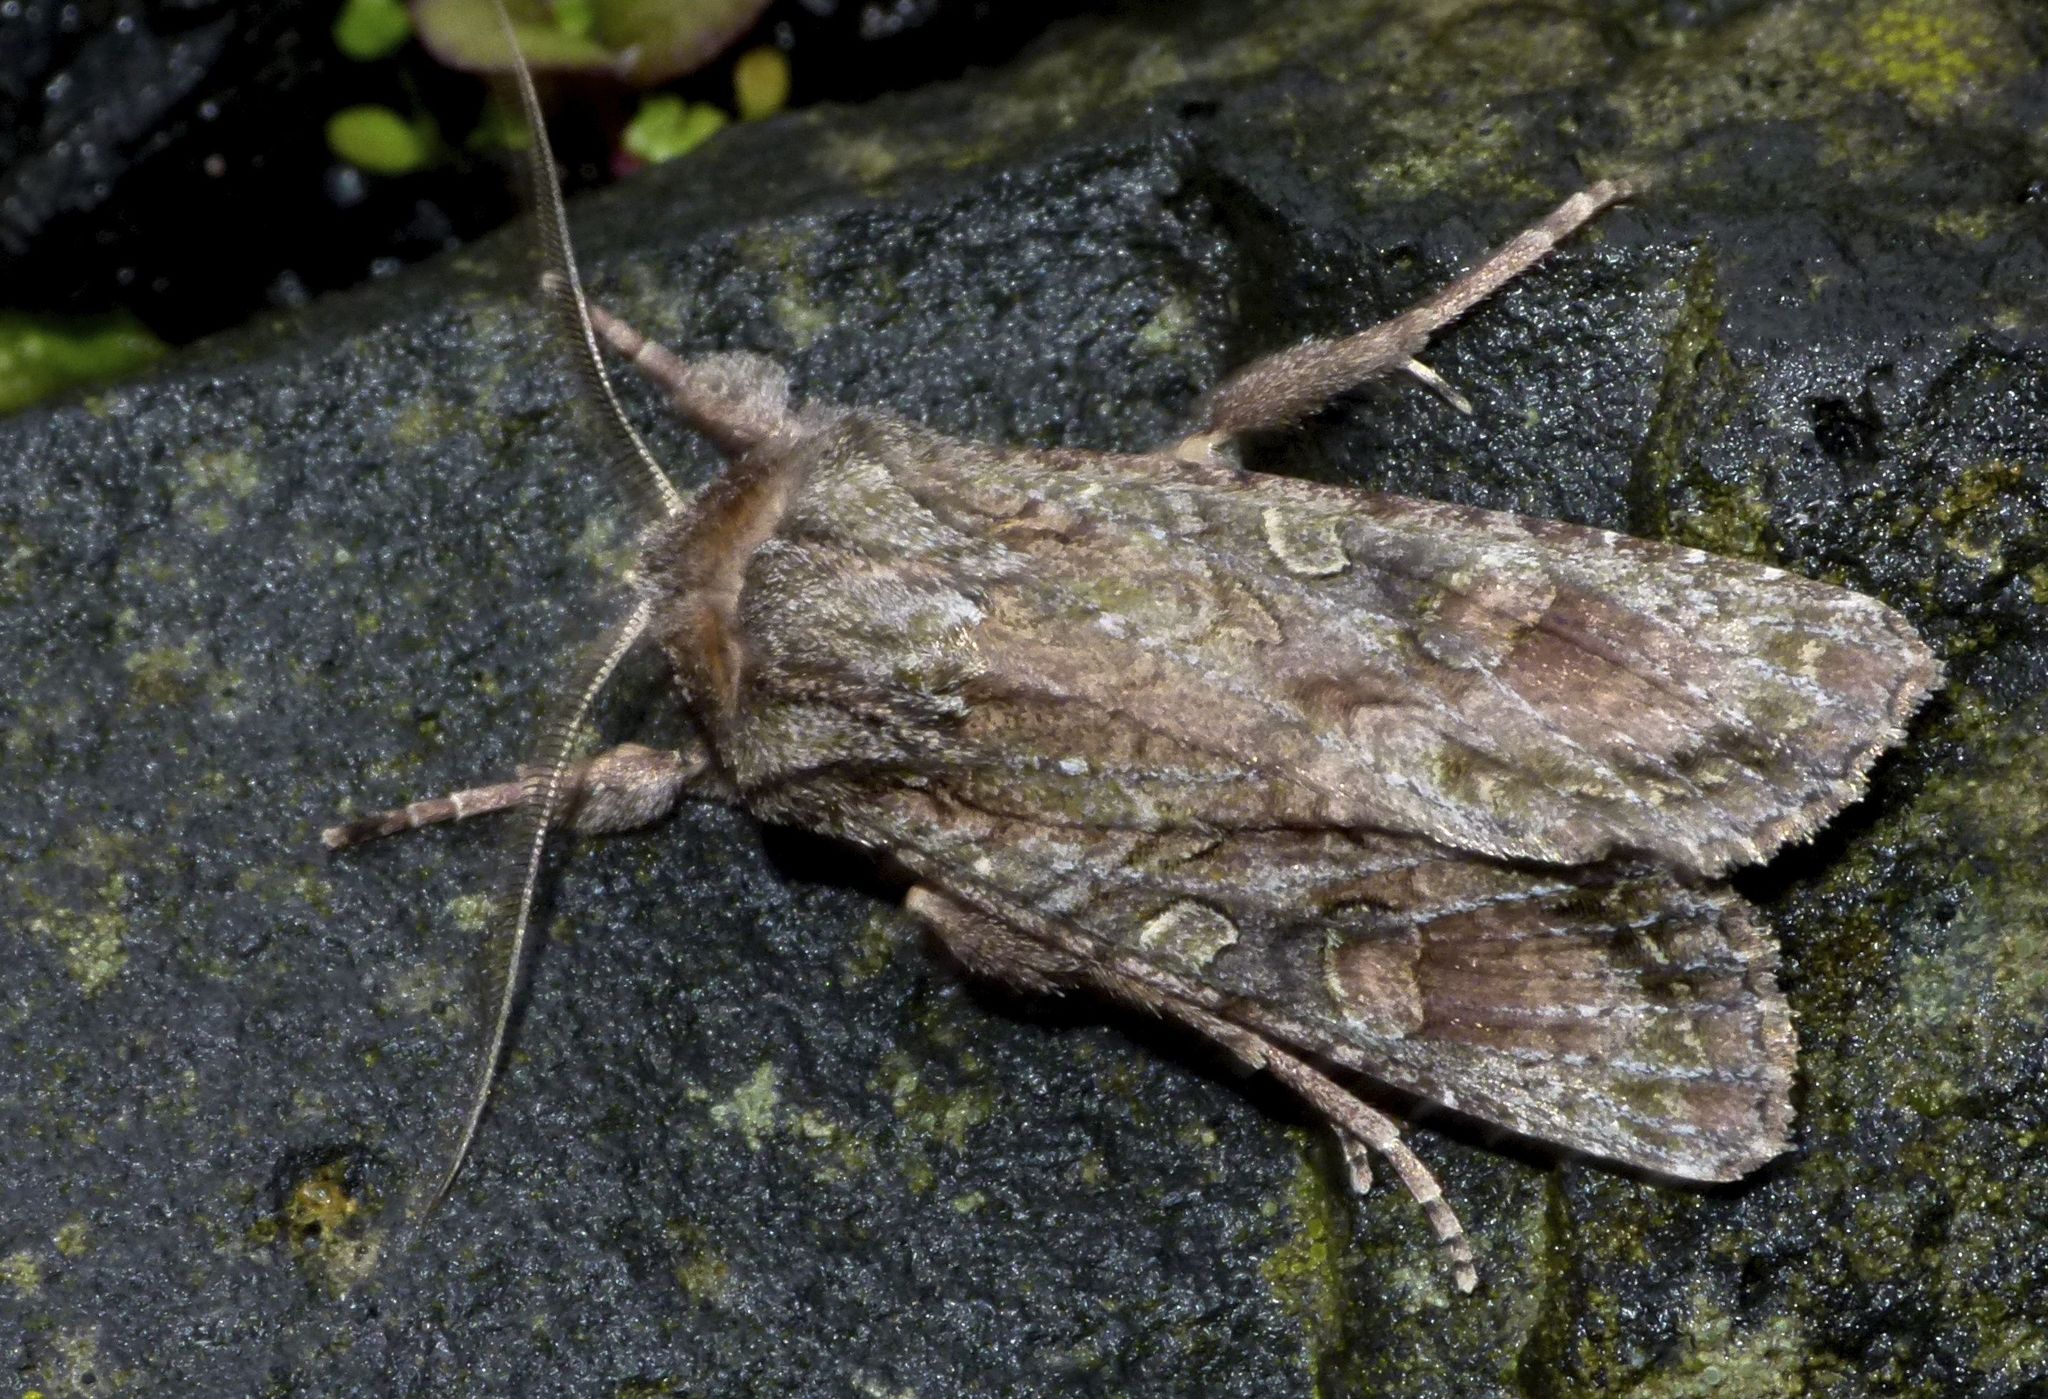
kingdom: Animalia
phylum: Arthropoda
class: Insecta
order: Lepidoptera
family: Noctuidae
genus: Ichneutica
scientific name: Ichneutica mutans
